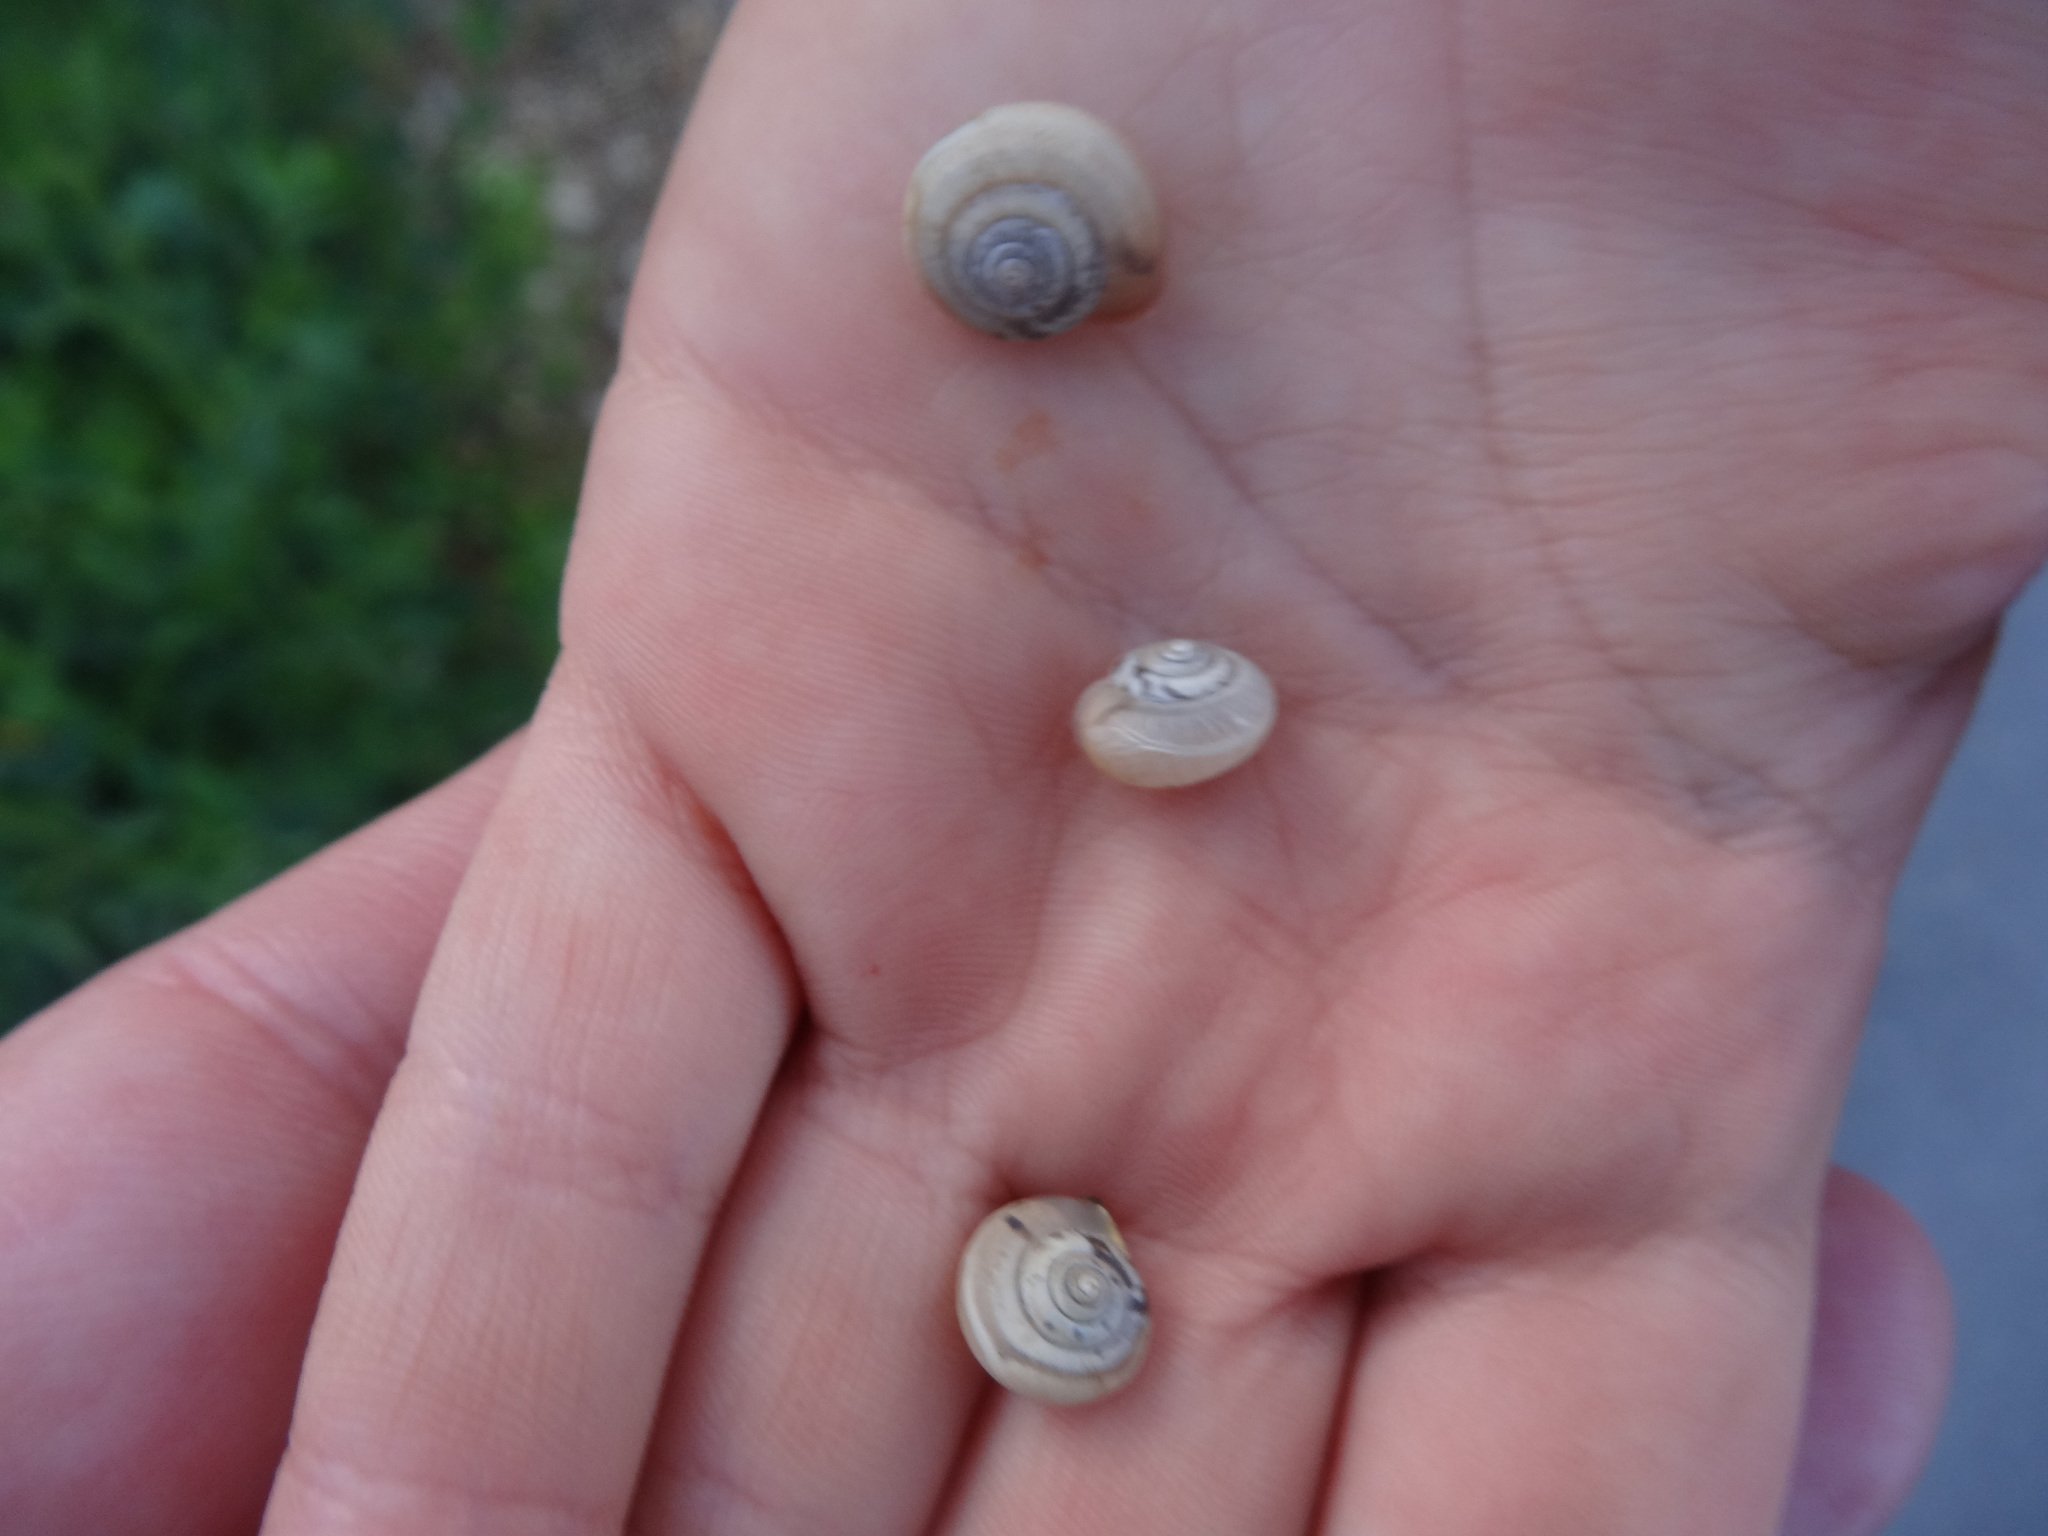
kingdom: Animalia
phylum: Mollusca
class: Gastropoda
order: Stylommatophora
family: Hygromiidae
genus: Monacha
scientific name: Monacha cartusiana
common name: Carthusian snail
